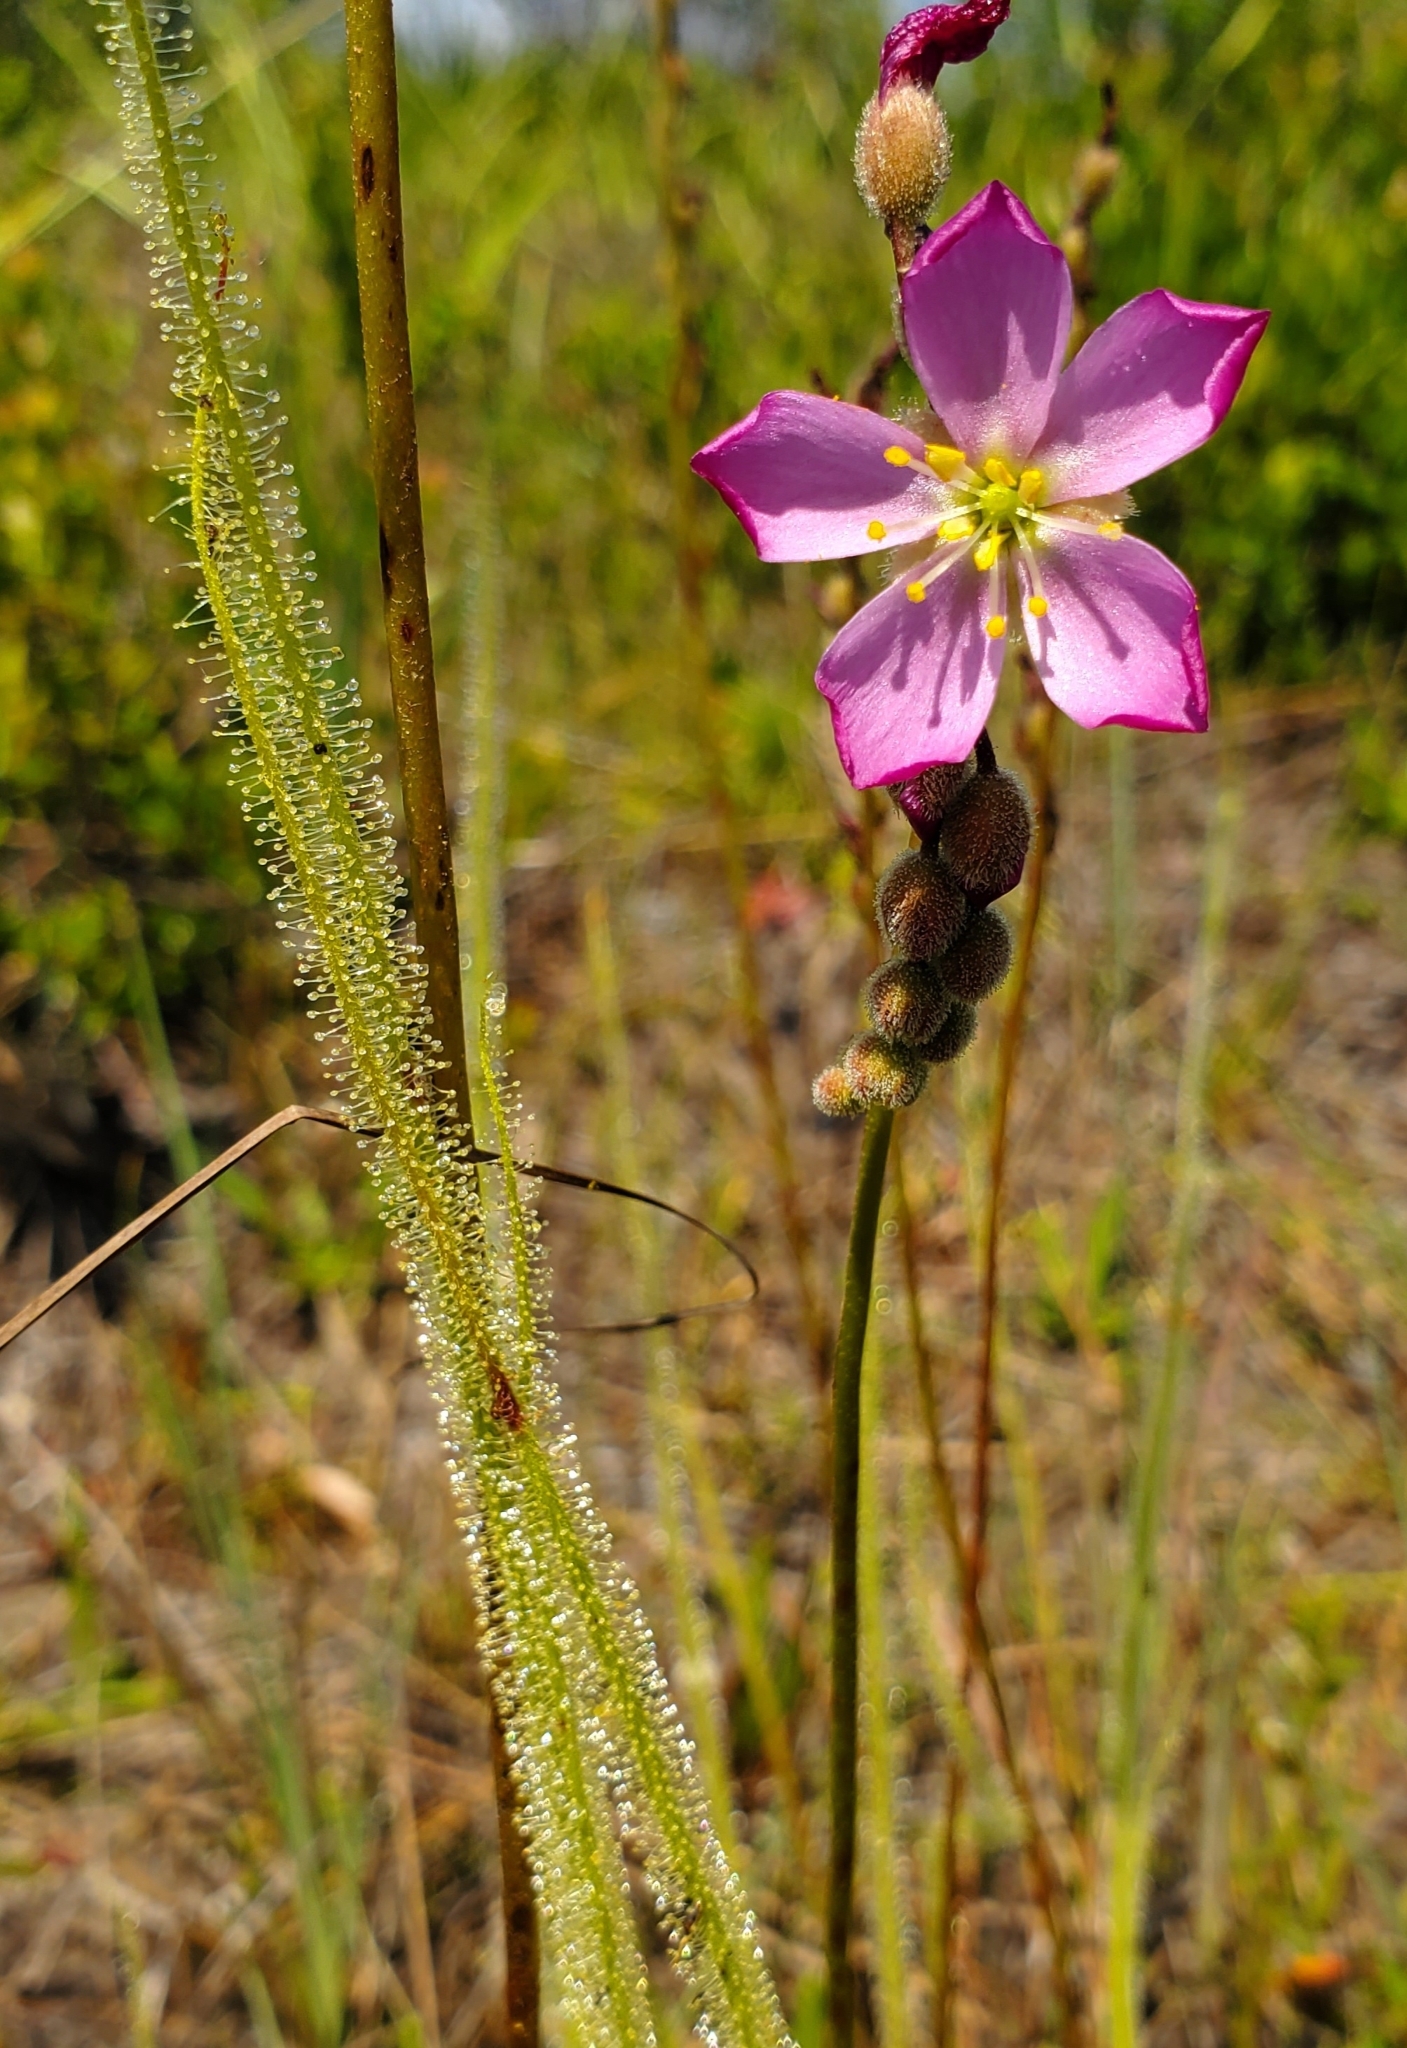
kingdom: Plantae
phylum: Tracheophyta
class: Magnoliopsida
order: Caryophyllales
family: Droseraceae
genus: Drosera
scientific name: Drosera filiformis
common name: Dew-thread
